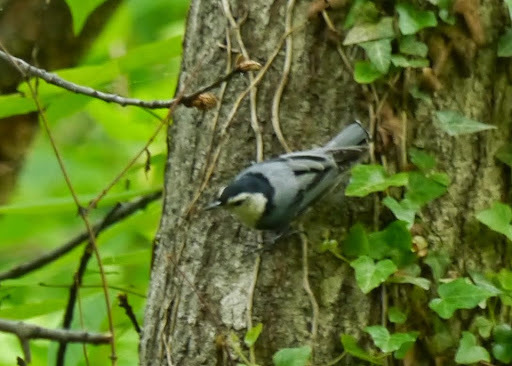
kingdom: Animalia
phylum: Chordata
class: Aves
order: Passeriformes
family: Sittidae
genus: Sitta
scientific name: Sitta carolinensis
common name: White-breasted nuthatch
